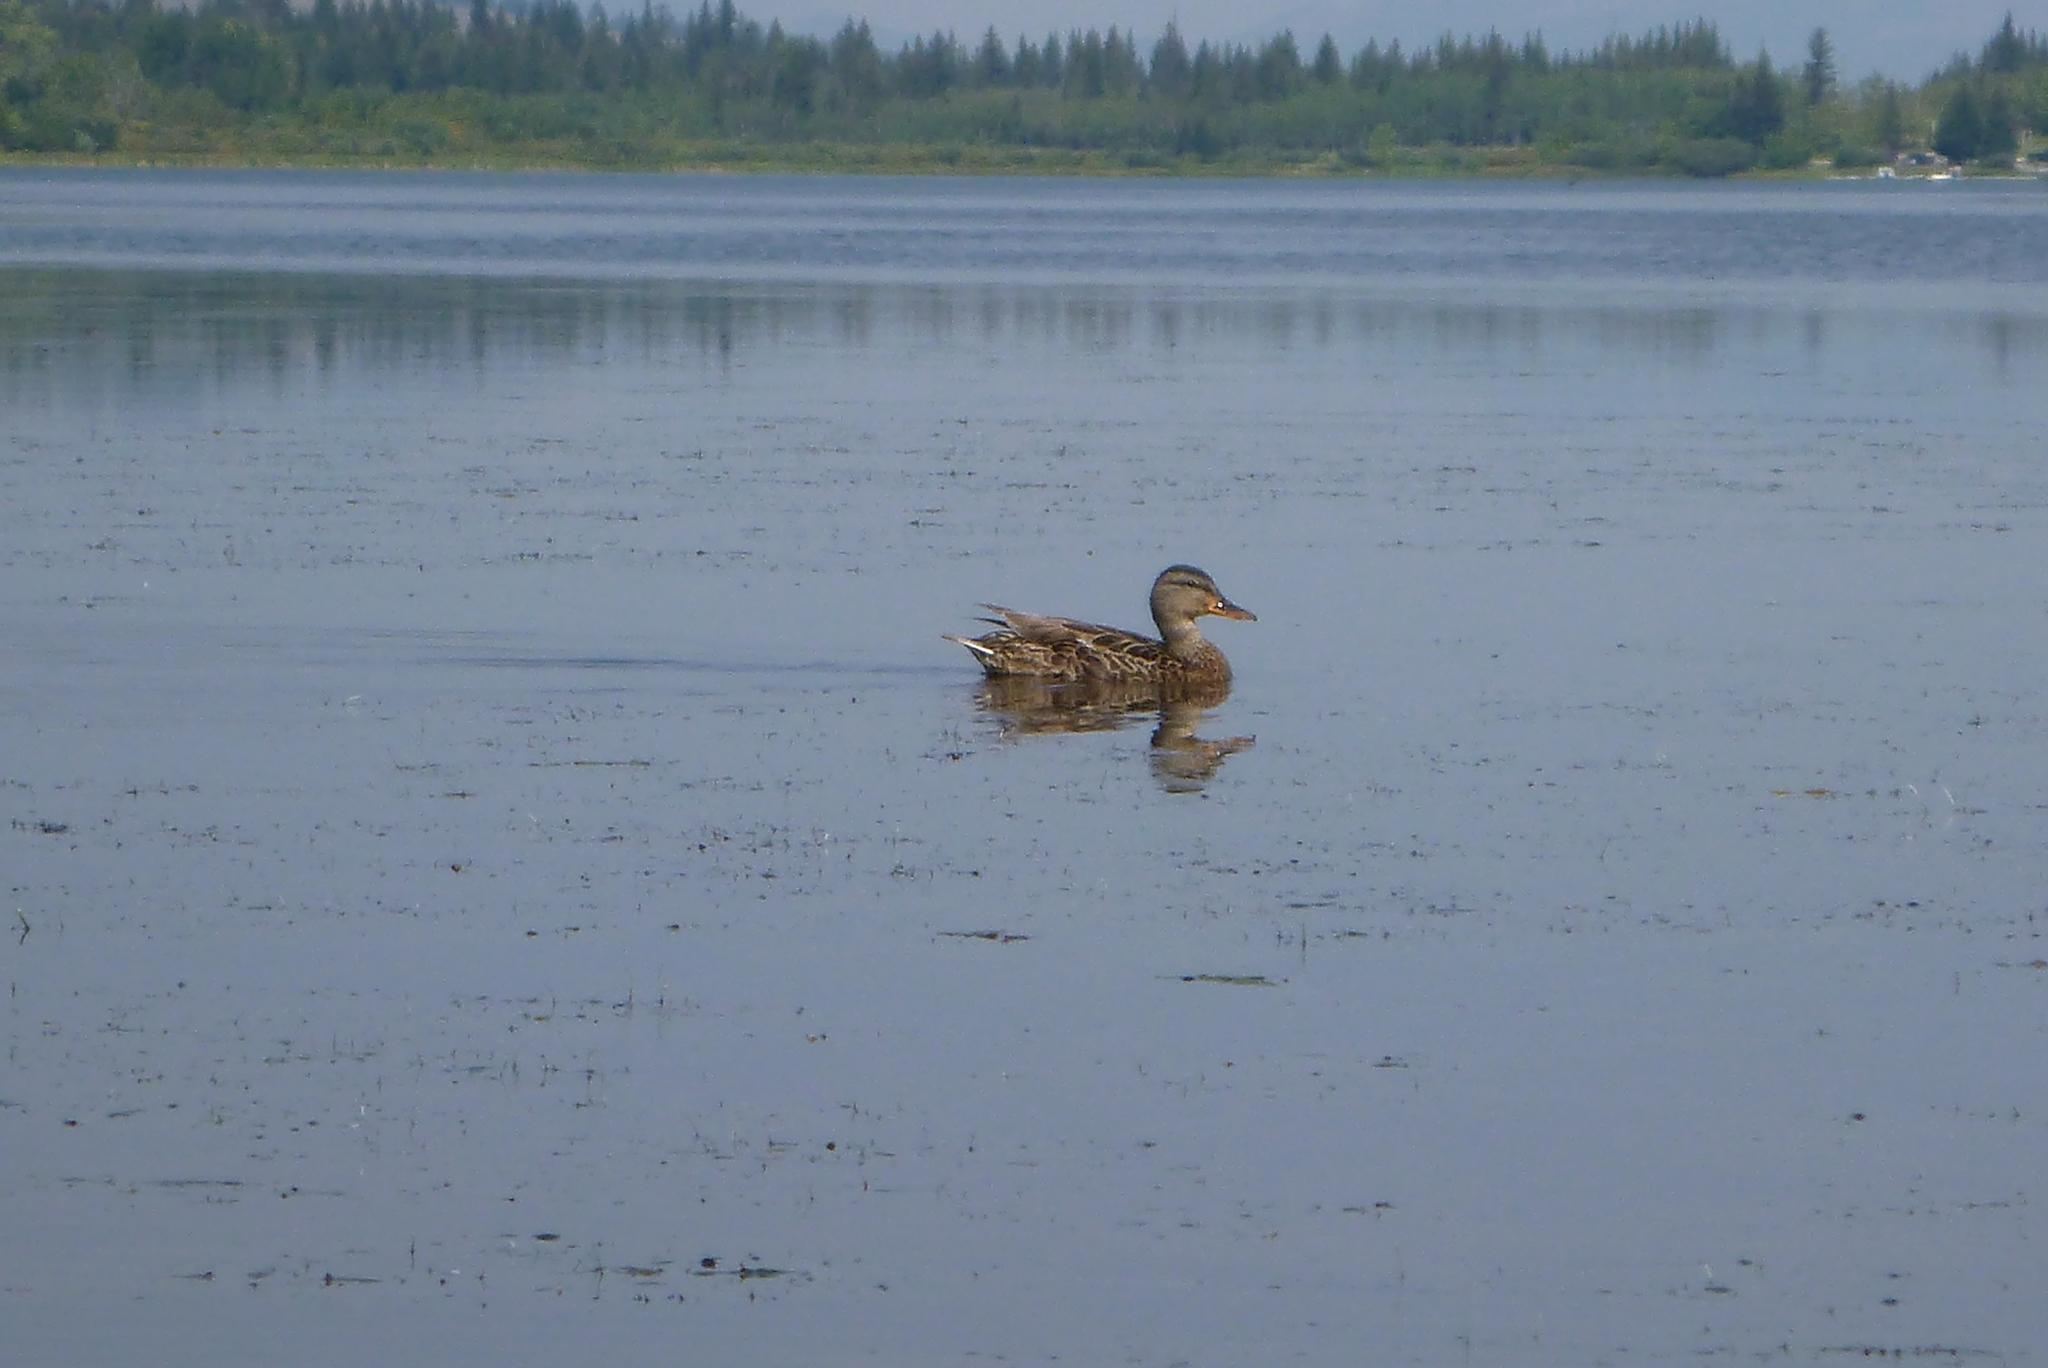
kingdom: Animalia
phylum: Chordata
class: Aves
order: Anseriformes
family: Anatidae
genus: Anas
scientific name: Anas platyrhynchos
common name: Mallard
